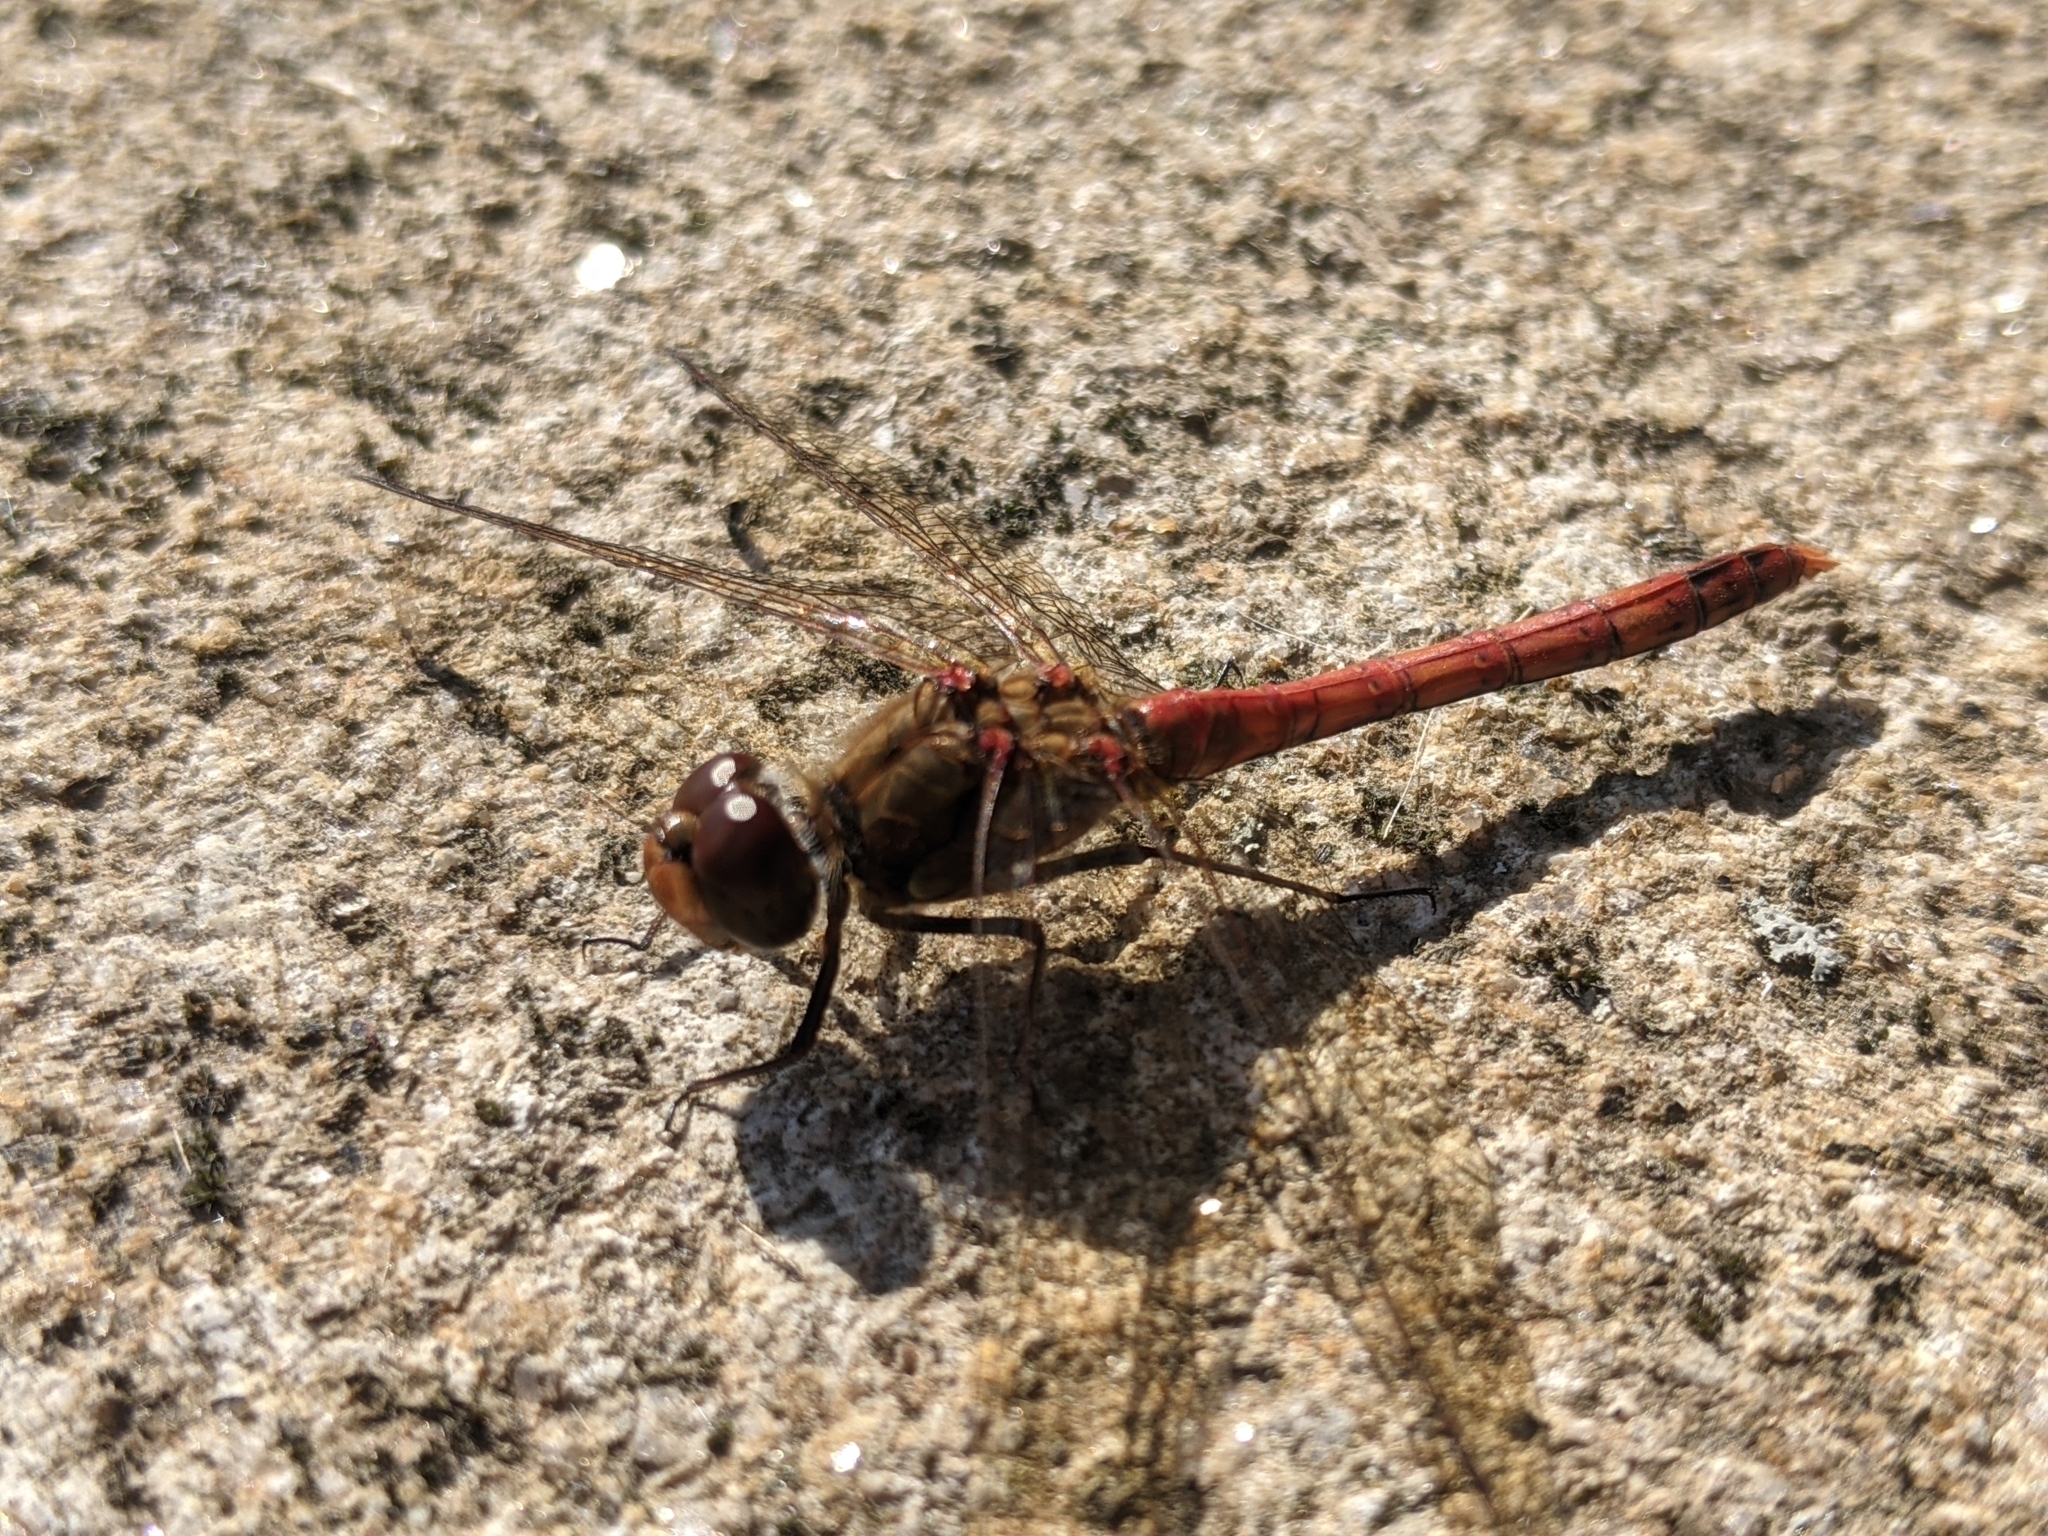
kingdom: Animalia
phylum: Arthropoda
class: Insecta
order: Odonata
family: Libellulidae
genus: Sympetrum
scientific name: Sympetrum striolatum
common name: Common darter
